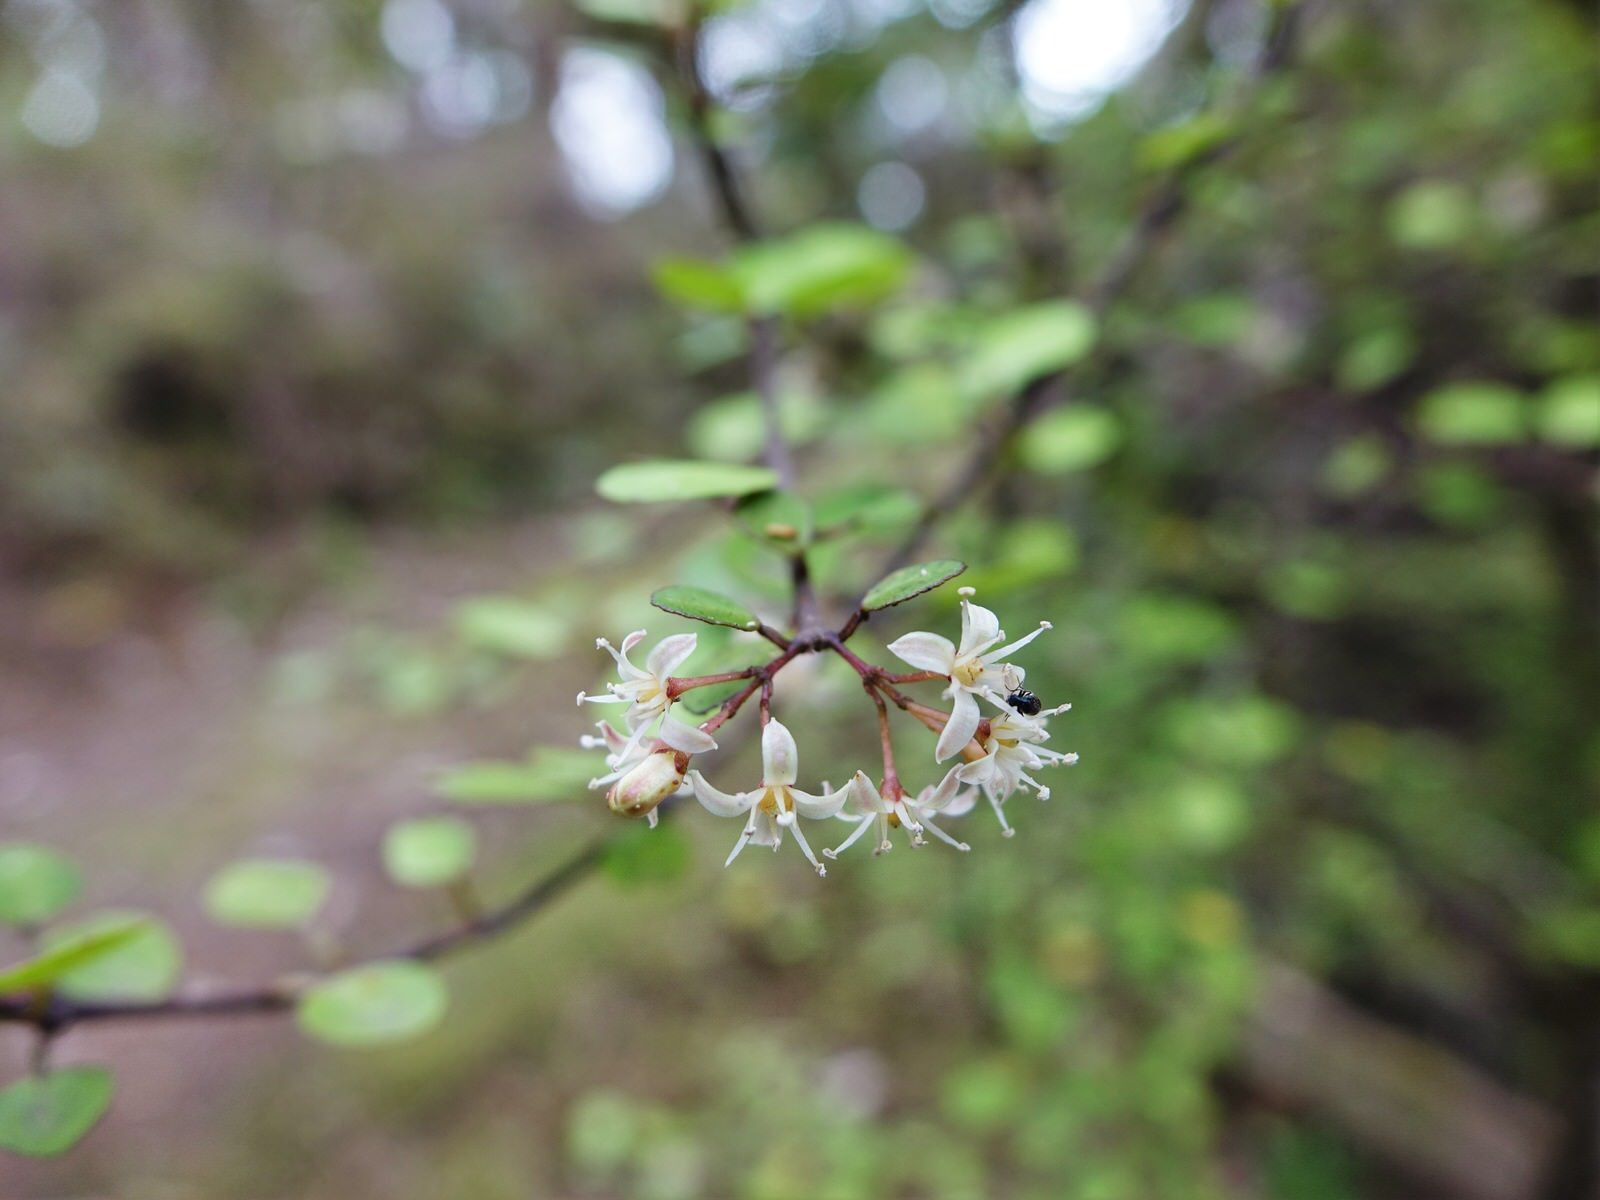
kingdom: Plantae
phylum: Tracheophyta
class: Magnoliopsida
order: Sapindales
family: Rutaceae
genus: Melicope
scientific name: Melicope simplex
